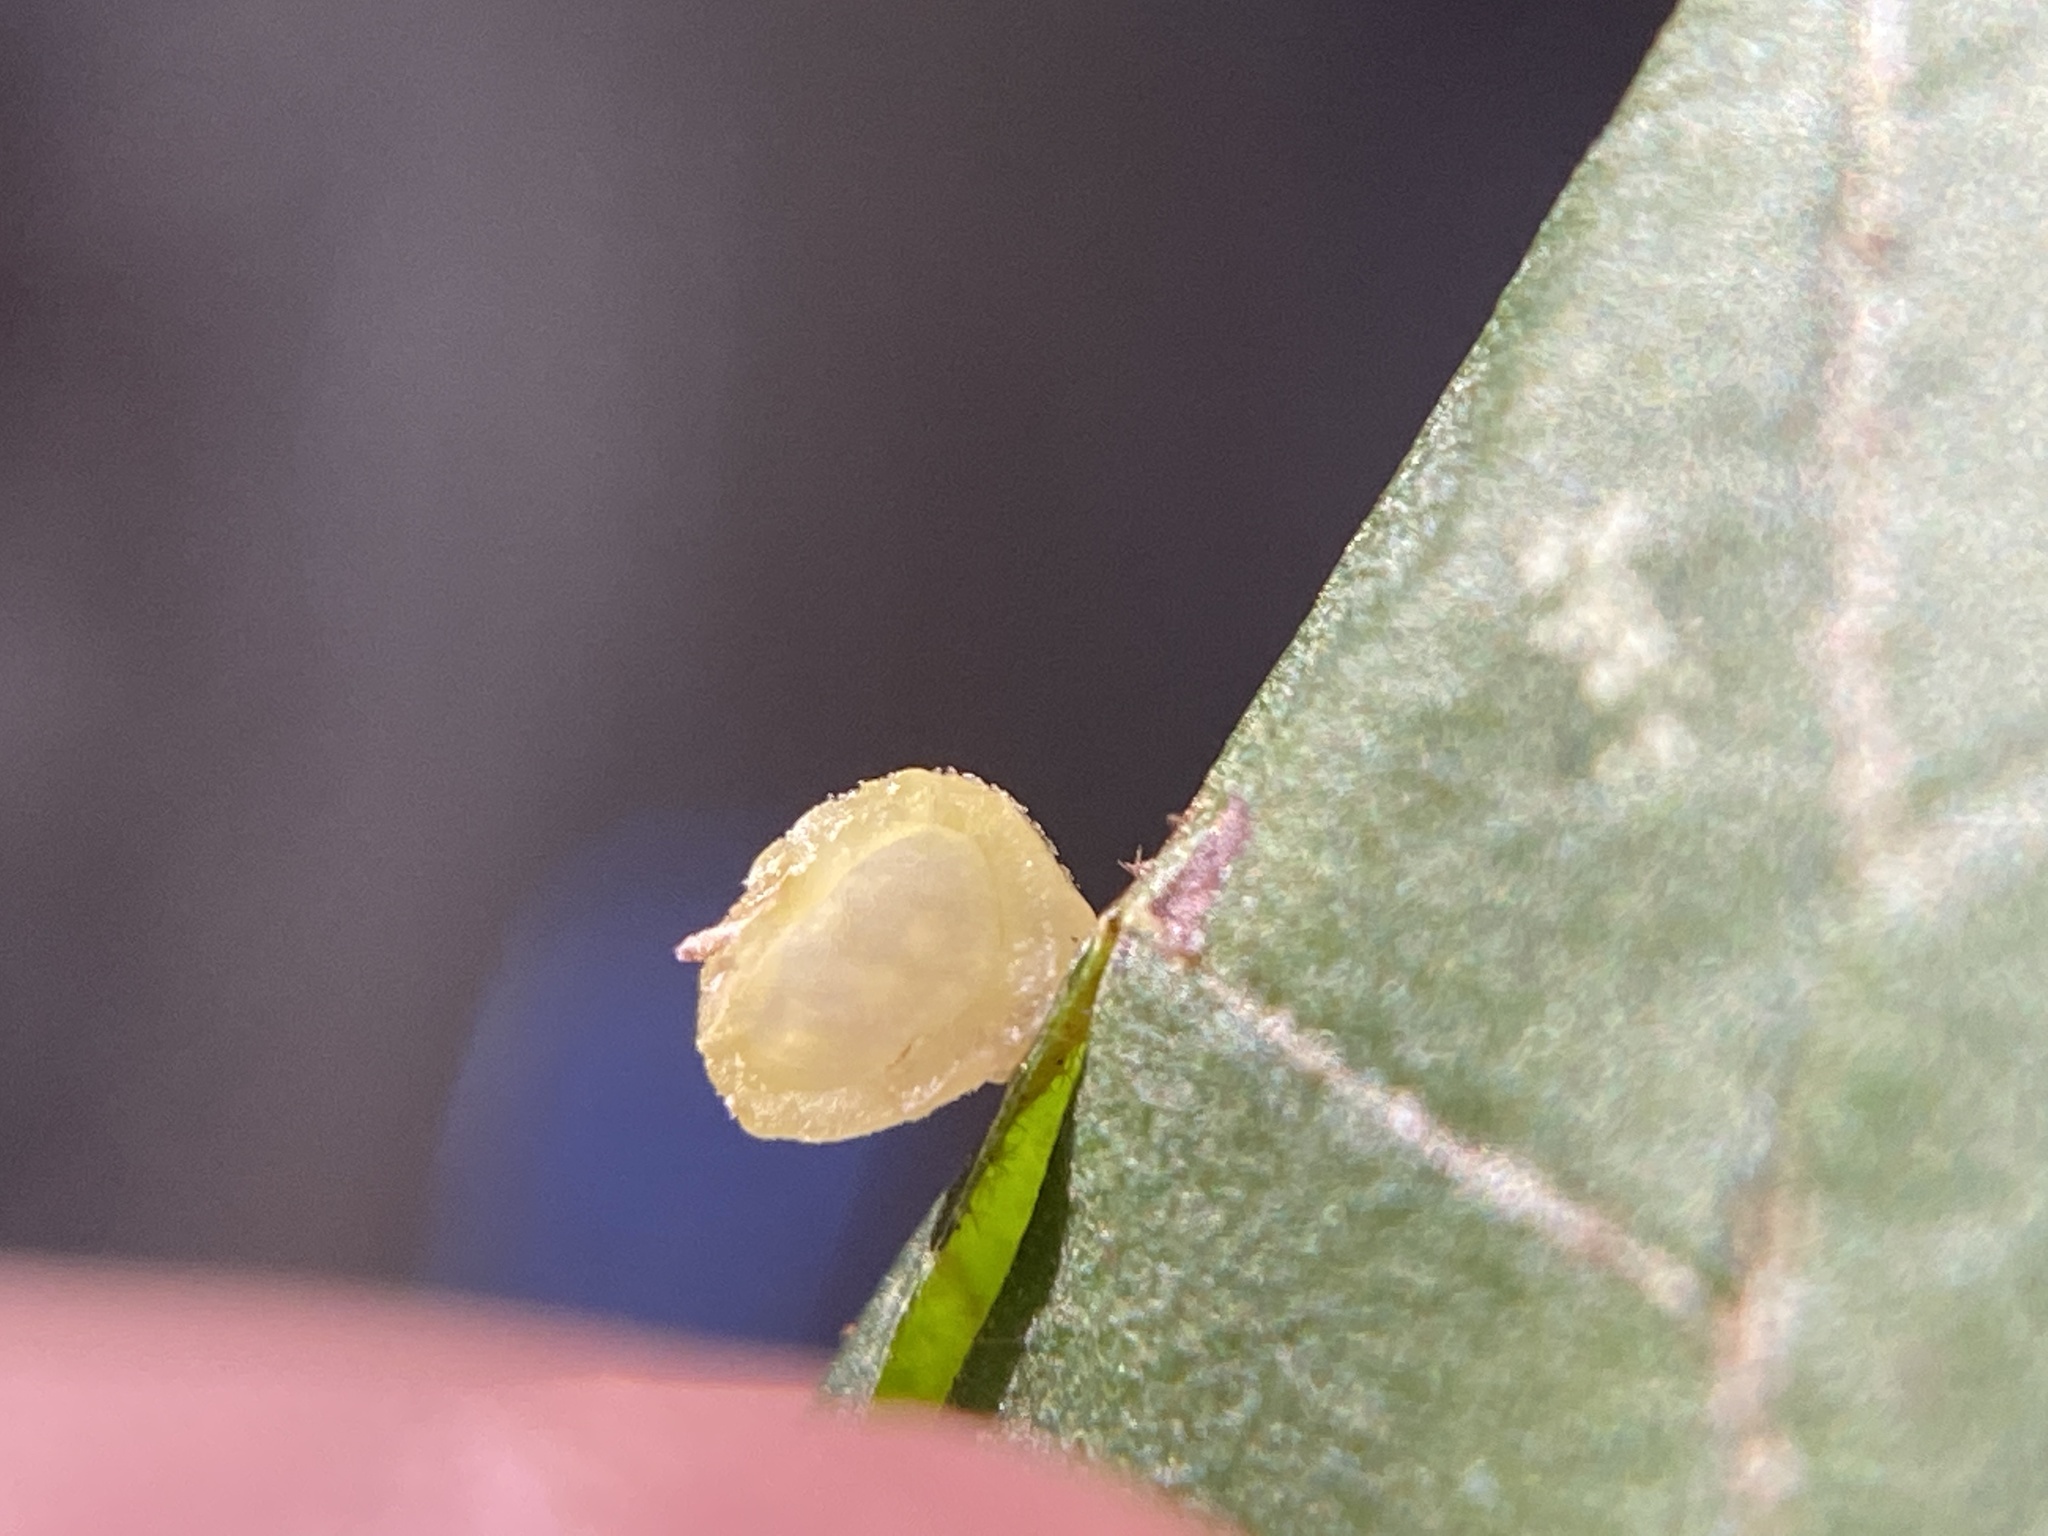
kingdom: Animalia
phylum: Arthropoda
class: Insecta
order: Diptera
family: Cecidomyiidae
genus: Caryomyia
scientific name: Caryomyia viscidolium
